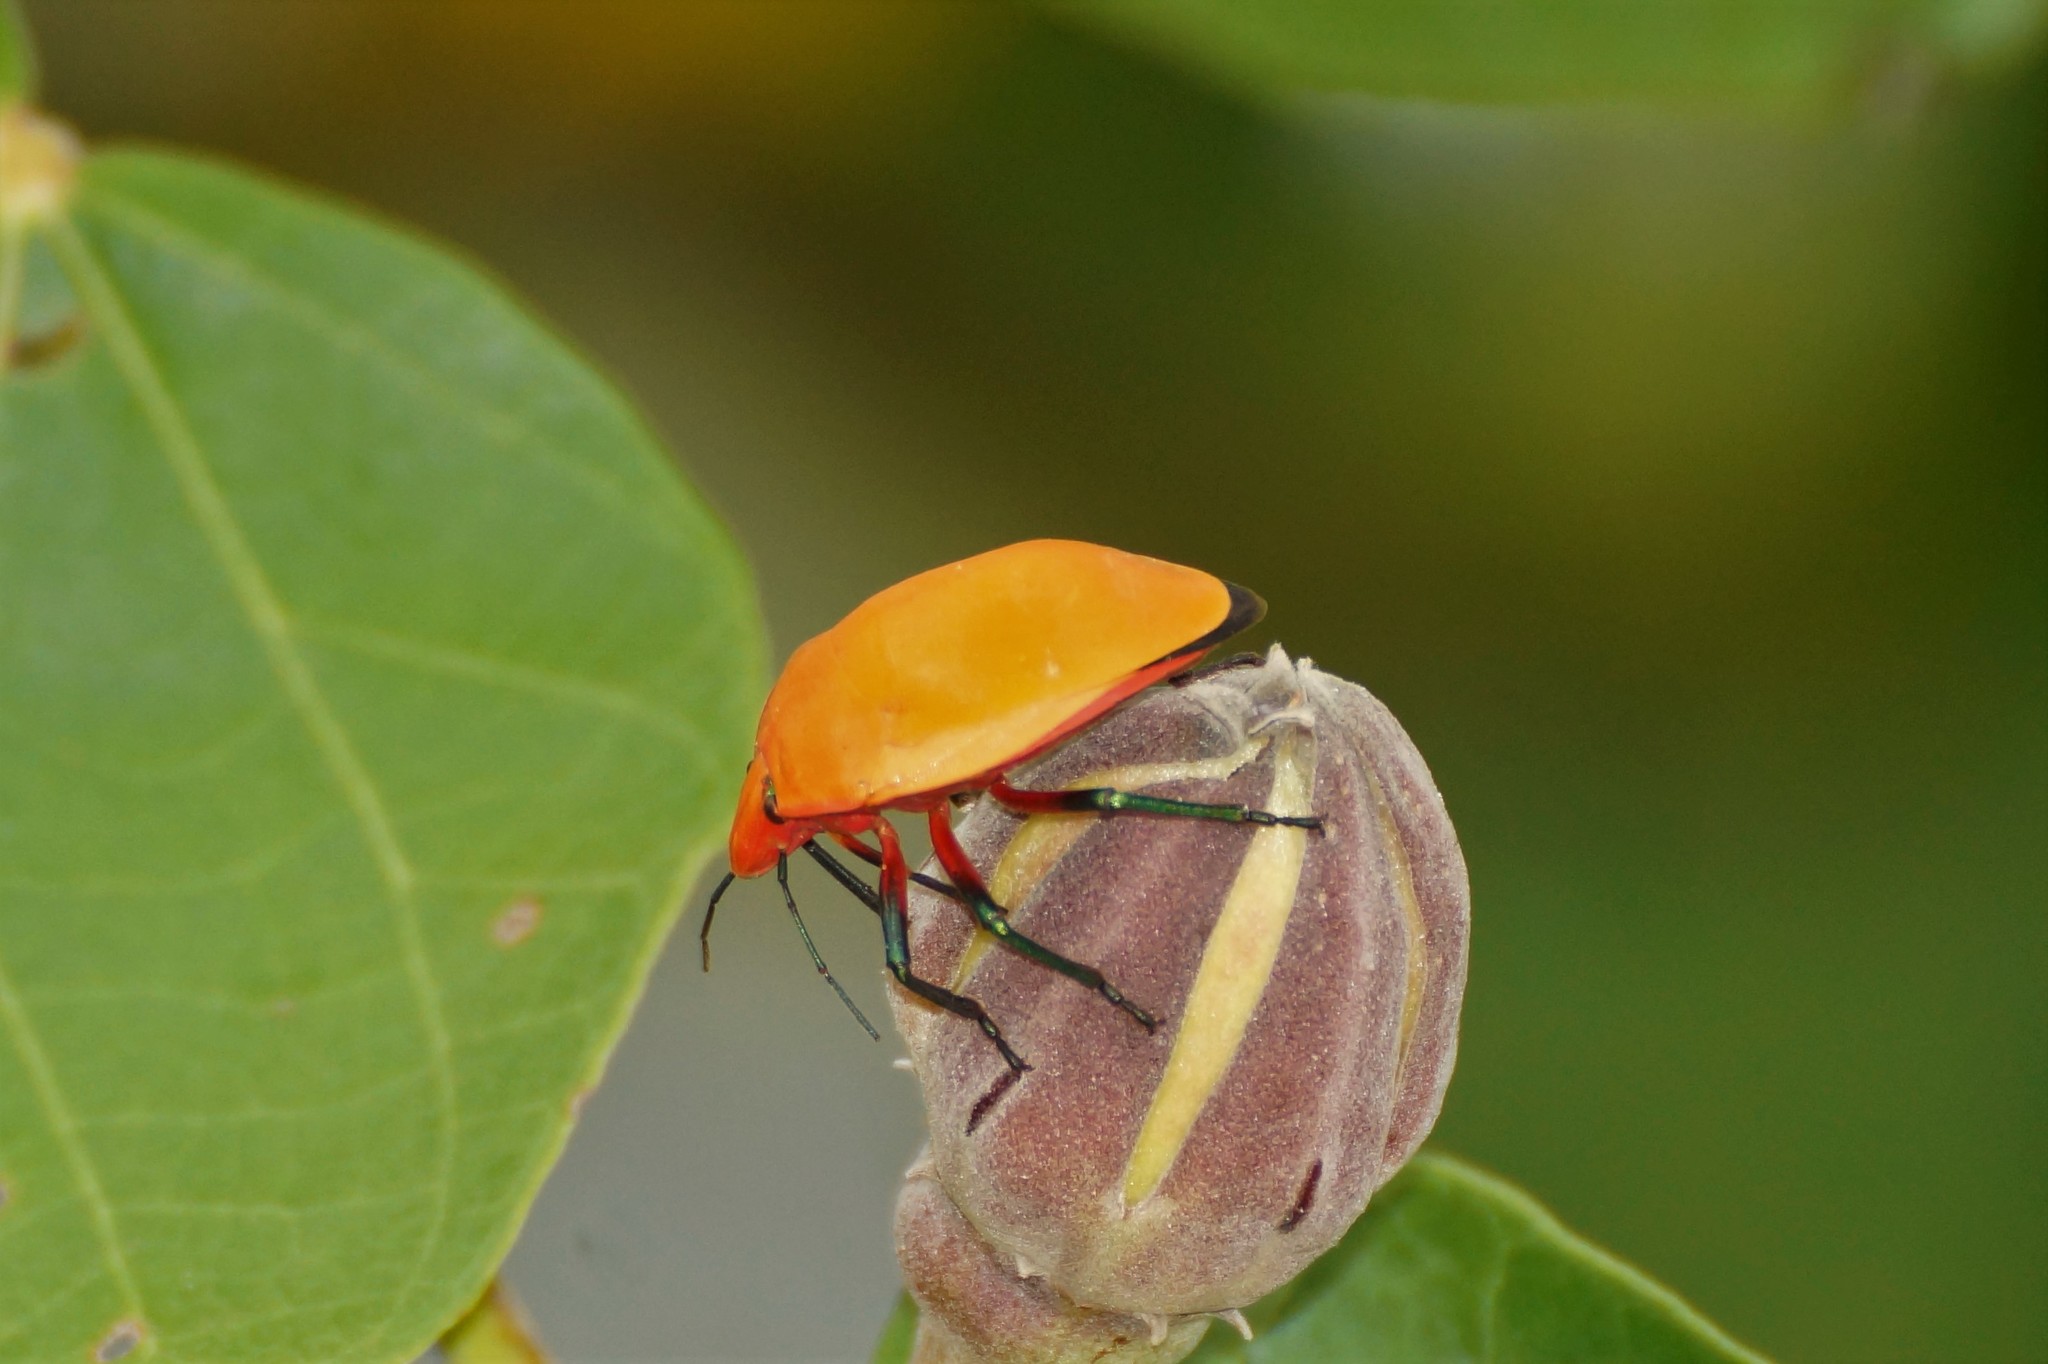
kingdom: Animalia
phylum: Arthropoda
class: Insecta
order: Hemiptera
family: Scutelleridae
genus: Tectocoris
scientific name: Tectocoris diophthalmus
